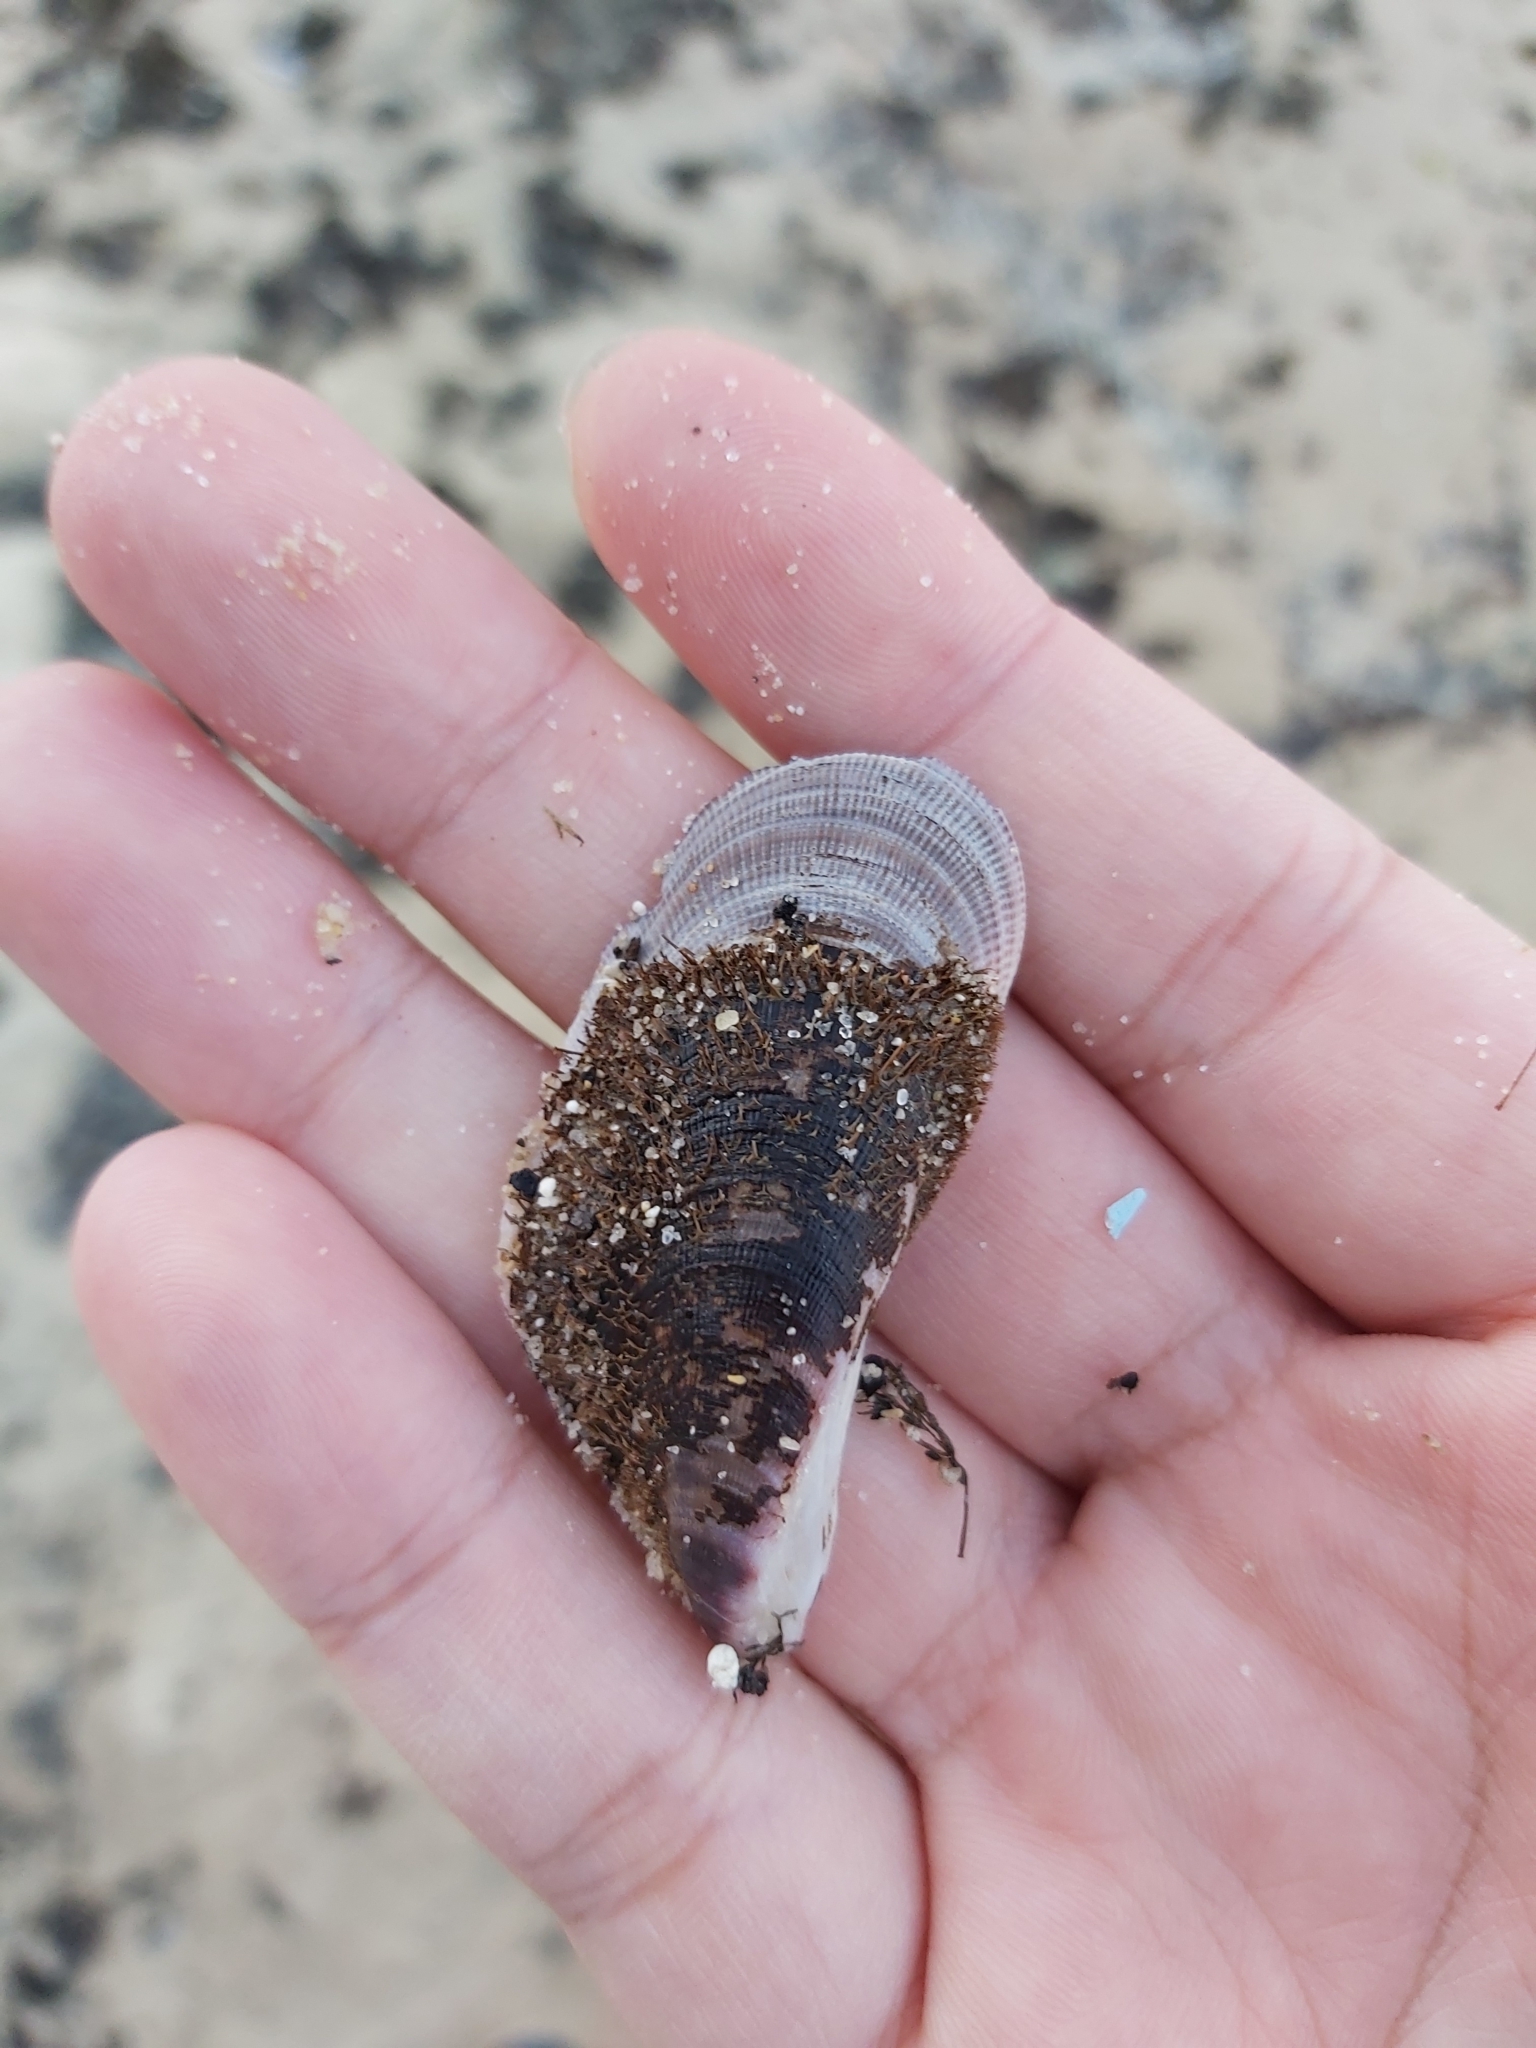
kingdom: Animalia
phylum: Mollusca
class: Bivalvia
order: Mytilida
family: Mytilidae
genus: Trichomya
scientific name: Trichomya hirsuta
